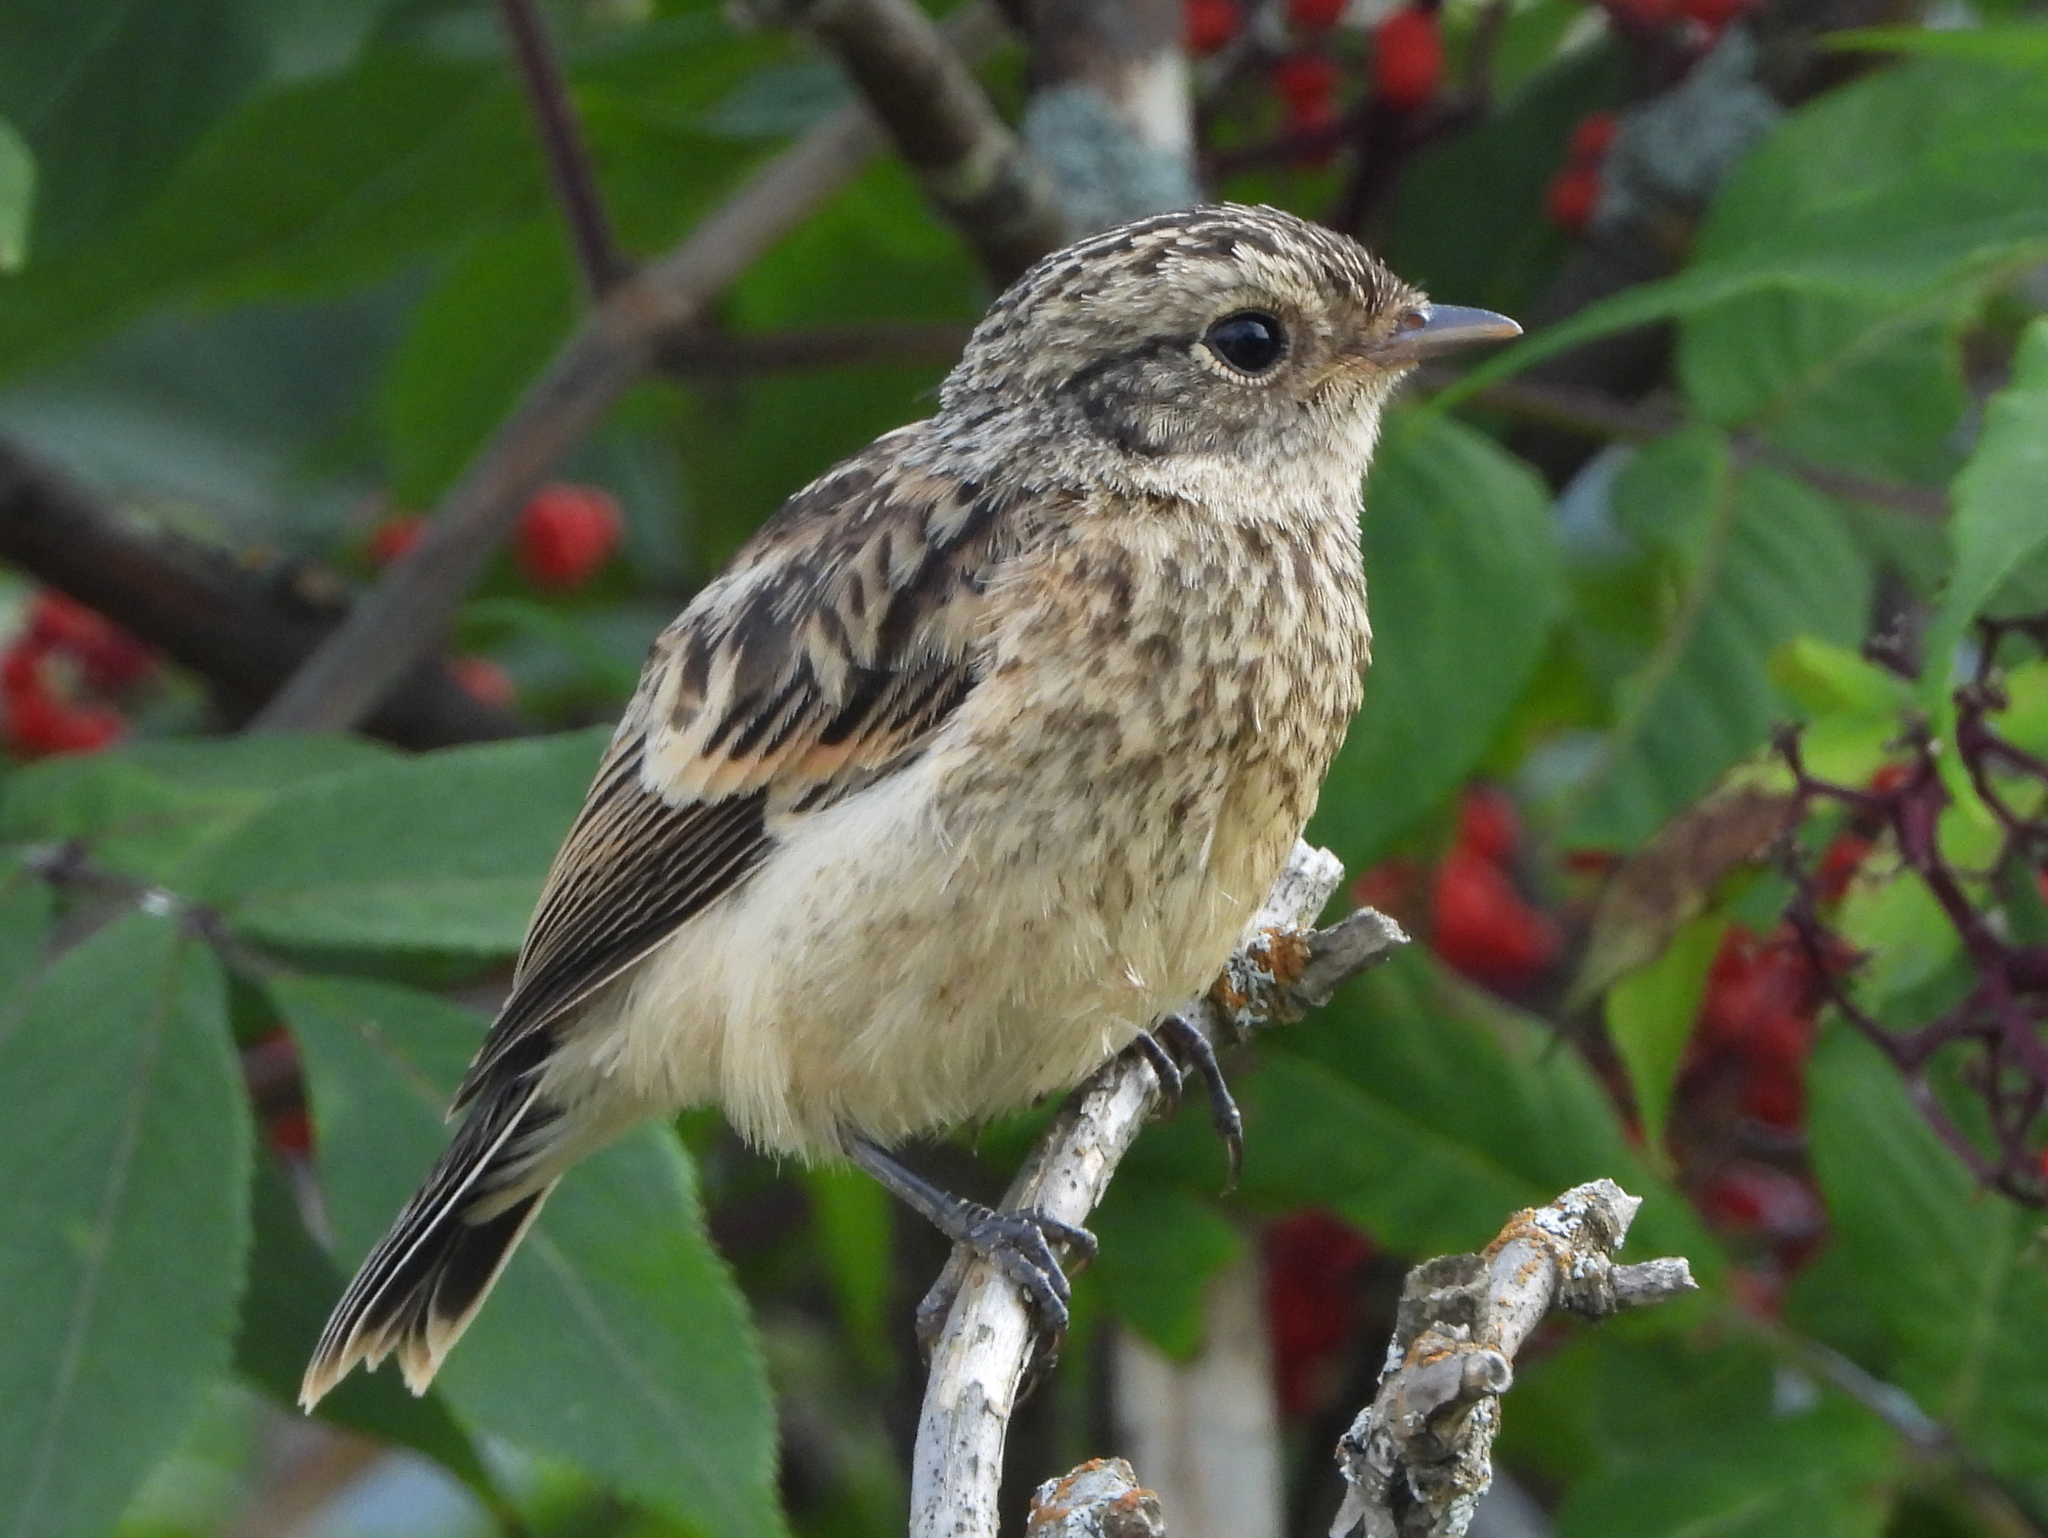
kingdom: Animalia
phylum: Chordata
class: Aves
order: Passeriformes
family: Muscicapidae
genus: Saxicola
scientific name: Saxicola maurus
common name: Siberian stonechat
